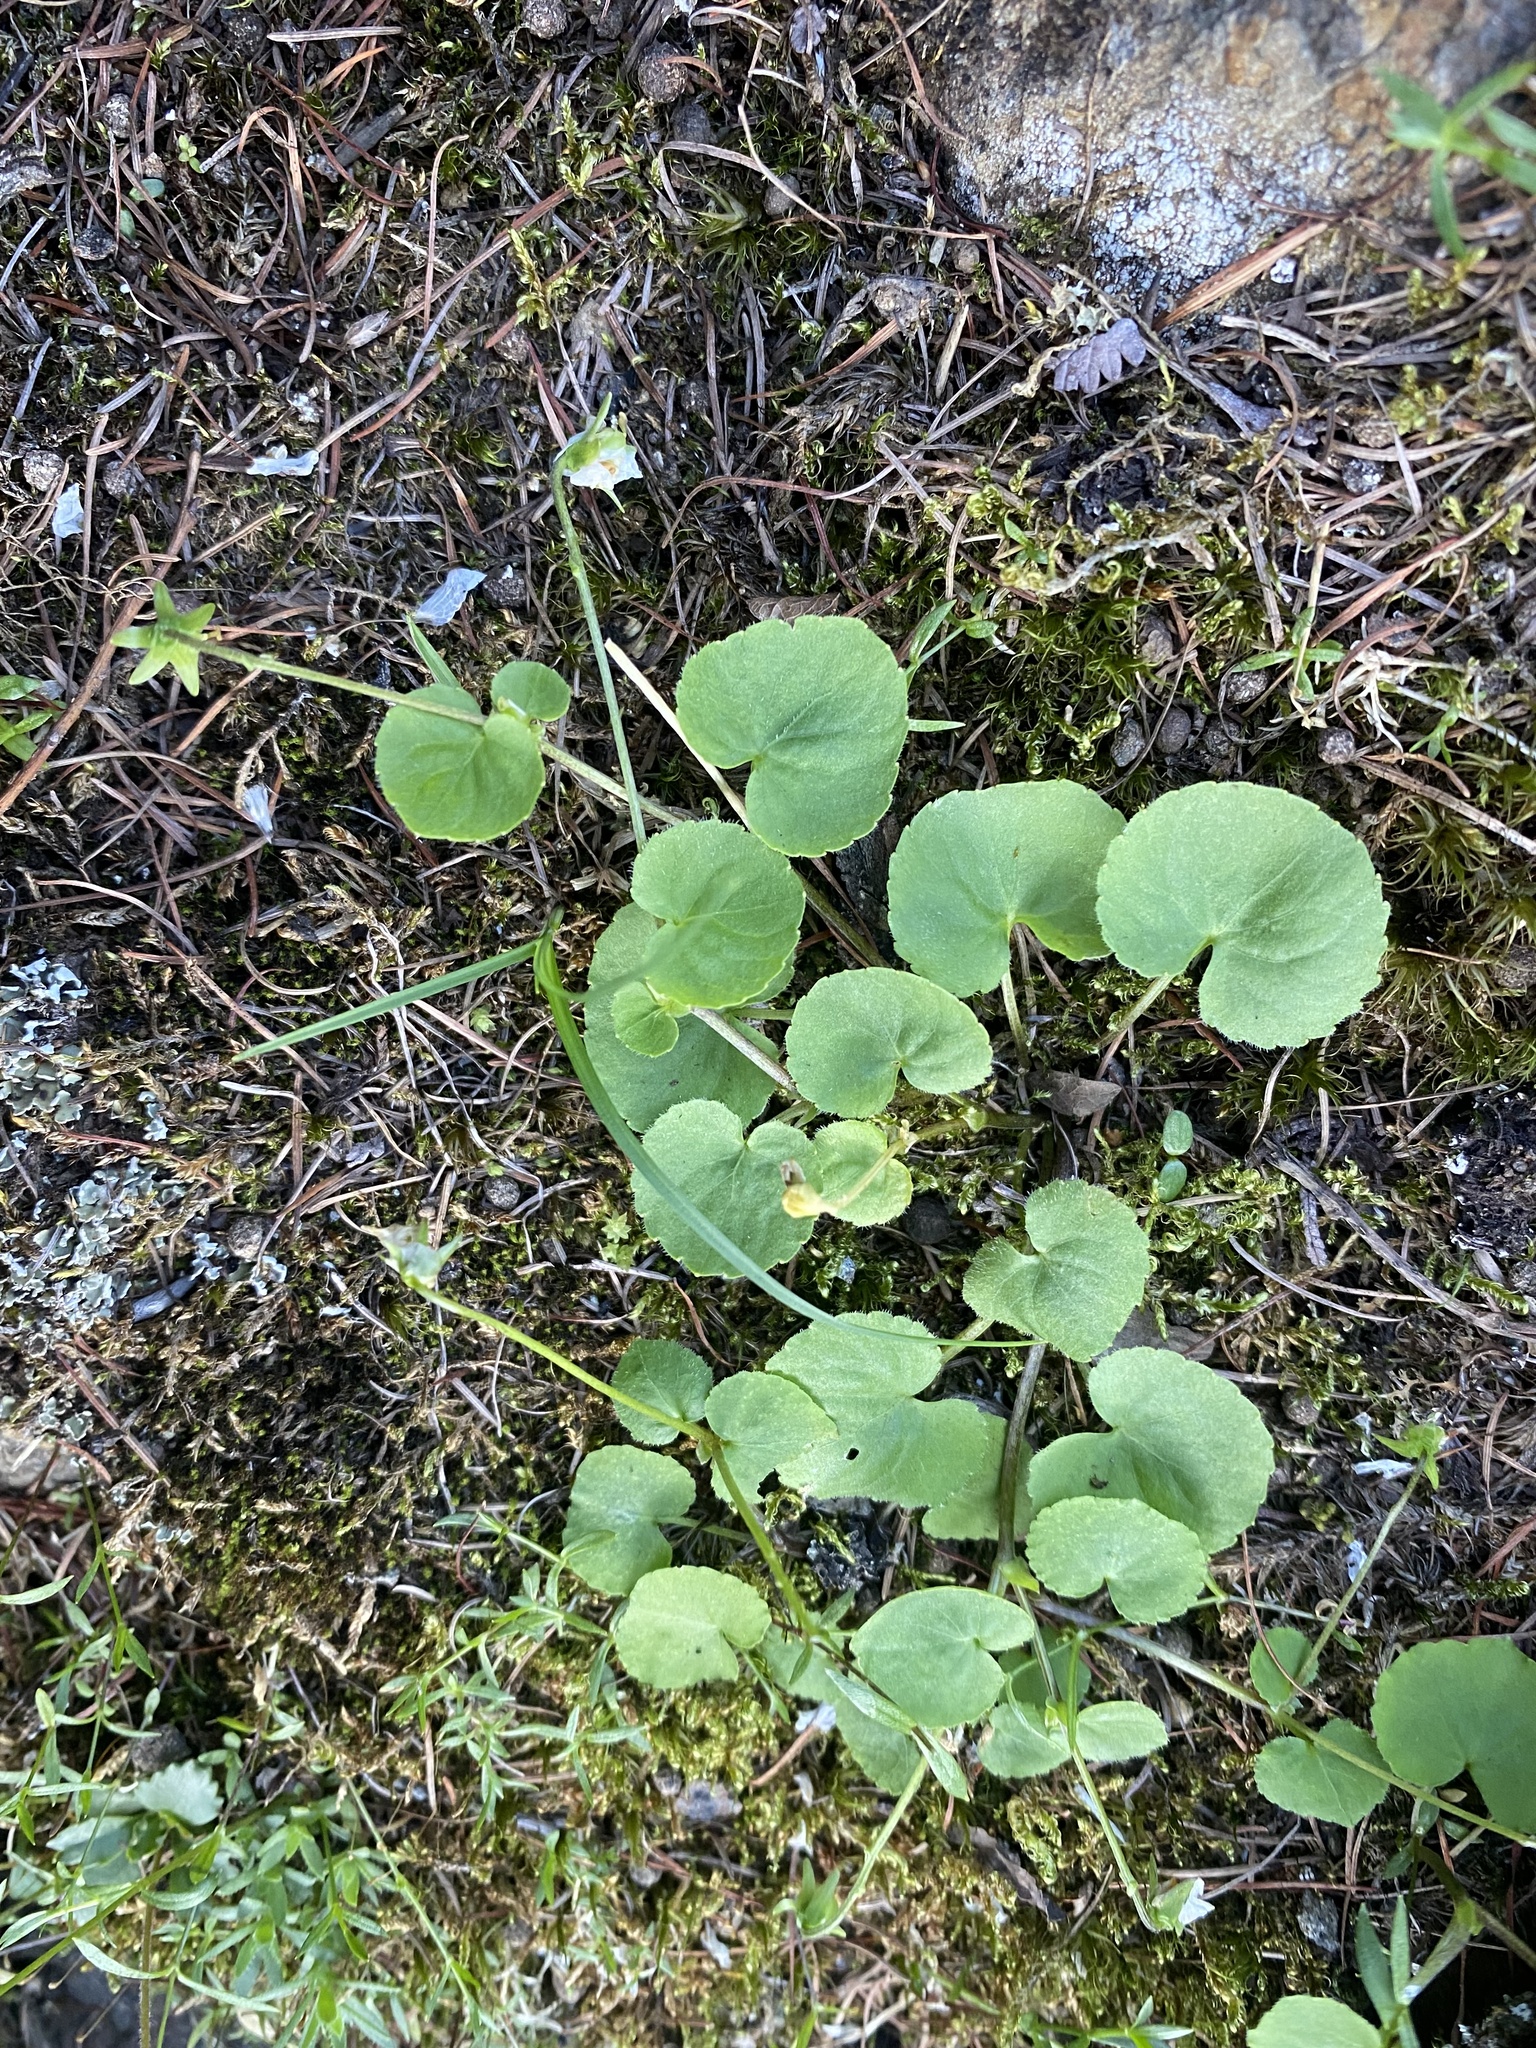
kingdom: Plantae
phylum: Tracheophyta
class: Magnoliopsida
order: Malpighiales
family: Violaceae
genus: Viola
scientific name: Viola biflora
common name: Alpine yellow violet
